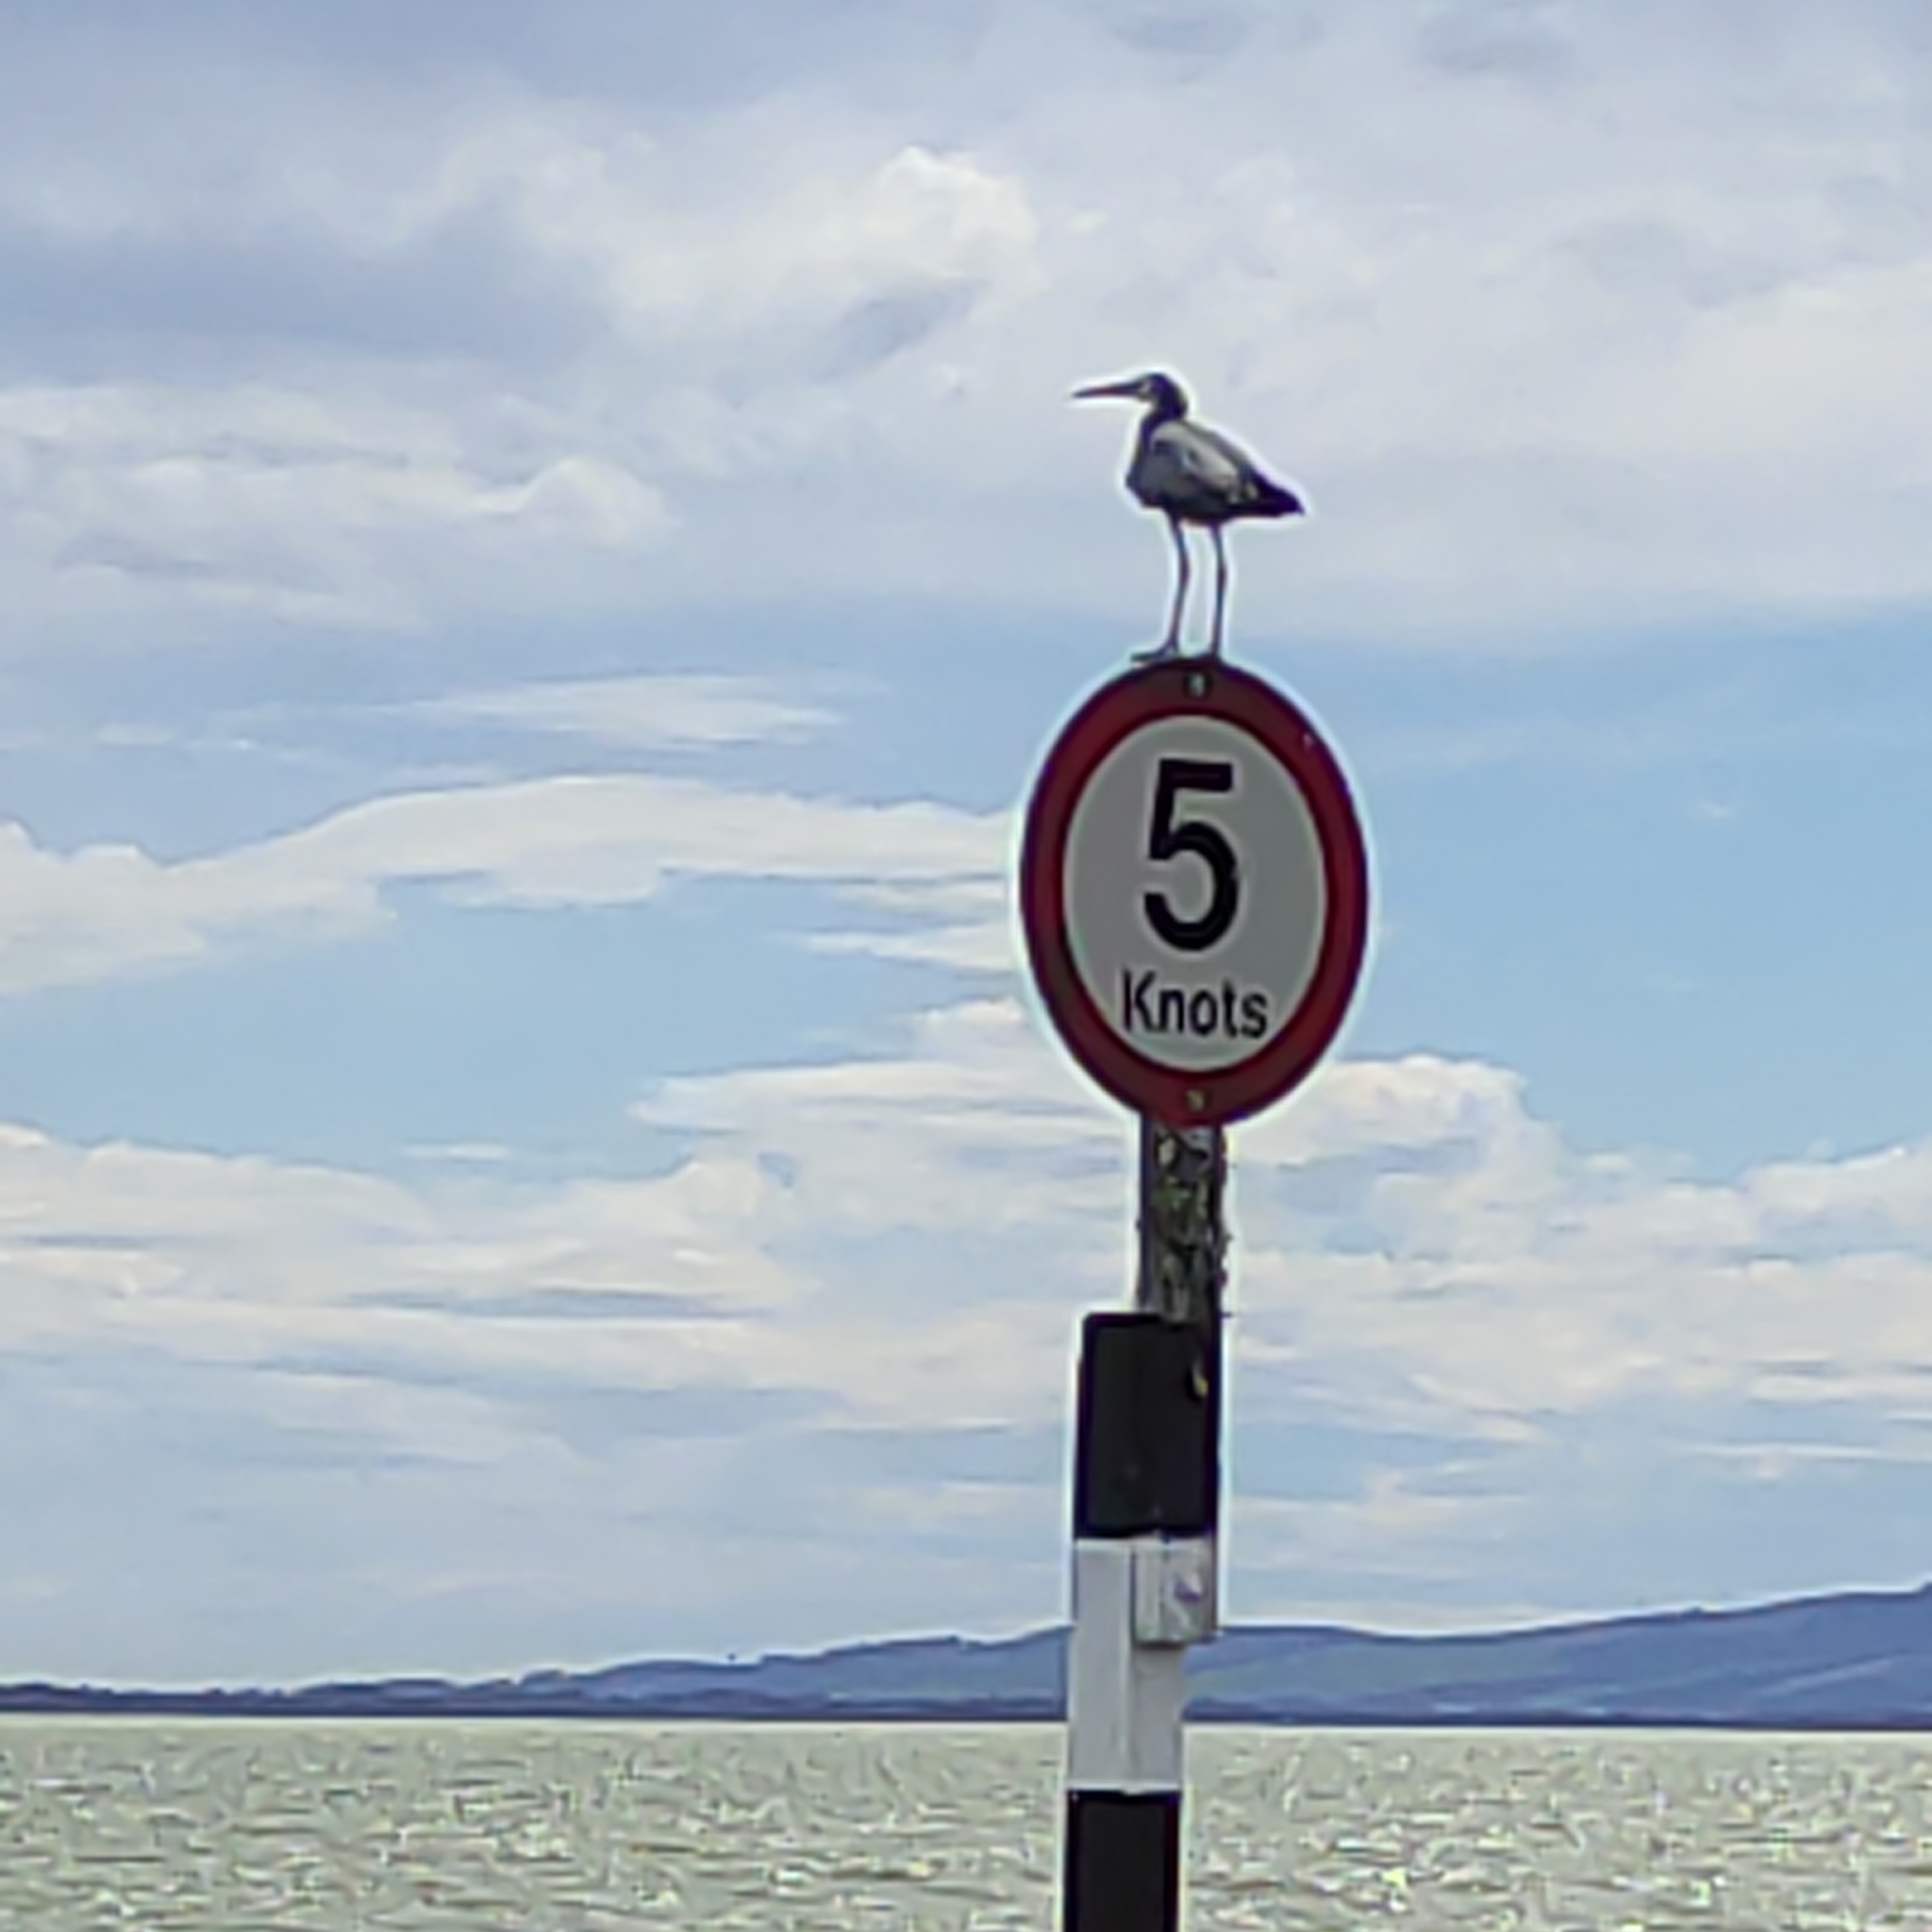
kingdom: Animalia
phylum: Chordata
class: Aves
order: Pelecaniformes
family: Ardeidae
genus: Egretta
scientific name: Egretta novaehollandiae
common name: White-faced heron
